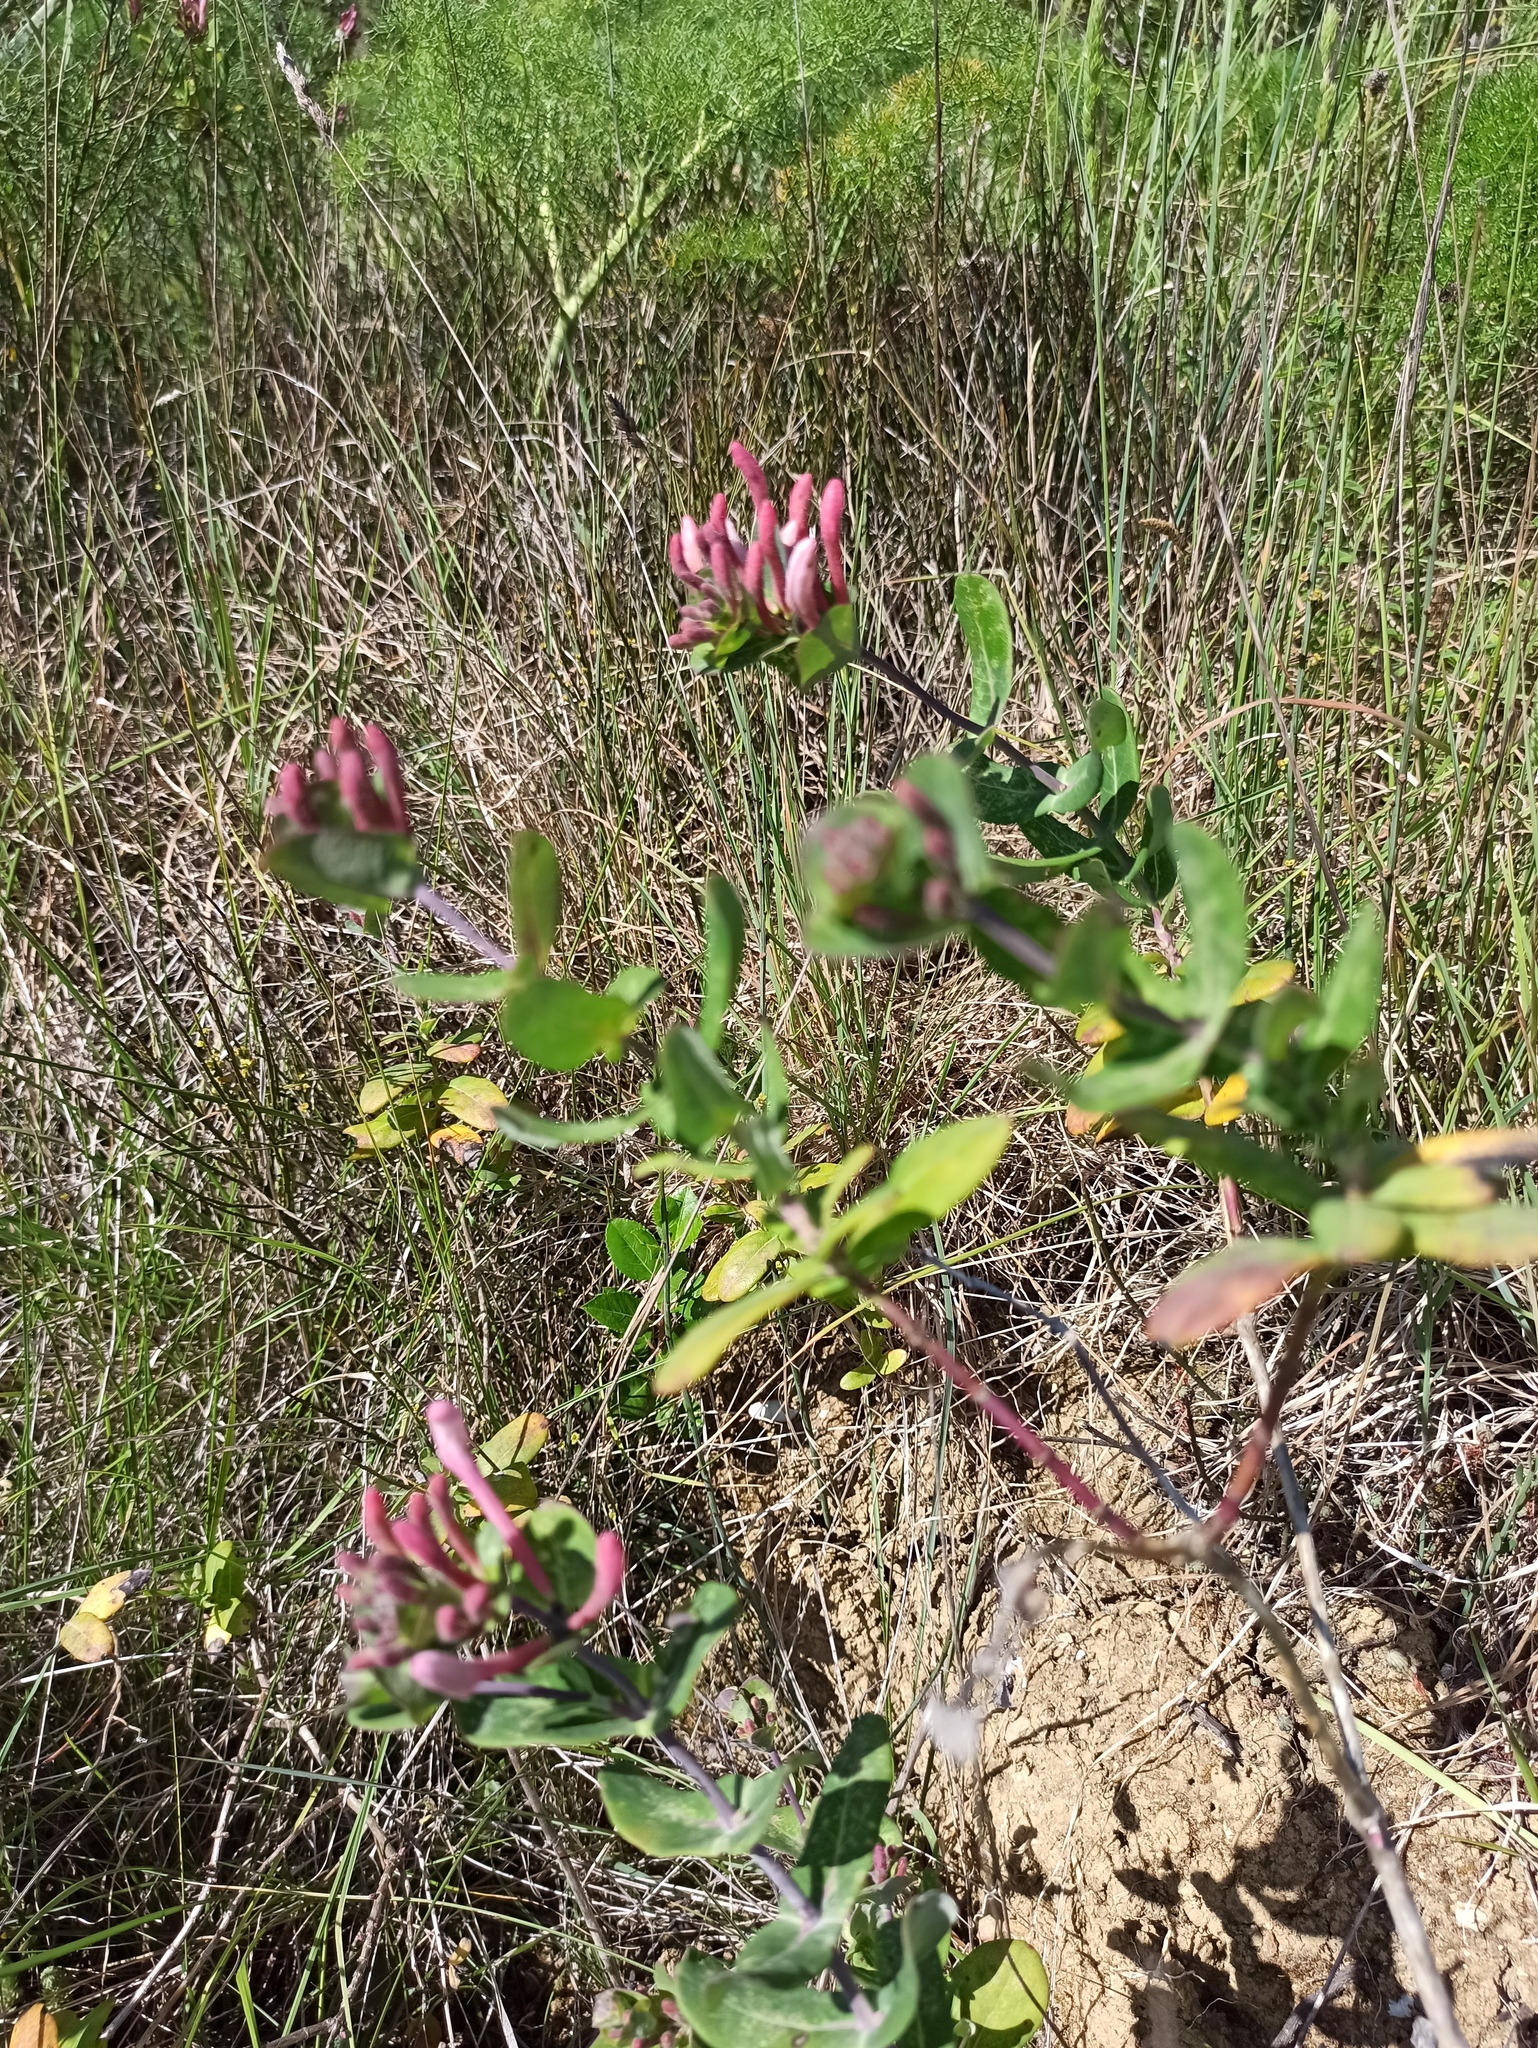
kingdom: Plantae
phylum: Tracheophyta
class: Magnoliopsida
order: Dipsacales
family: Caprifoliaceae
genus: Lonicera
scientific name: Lonicera implexa
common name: Minorca honeysuckle
